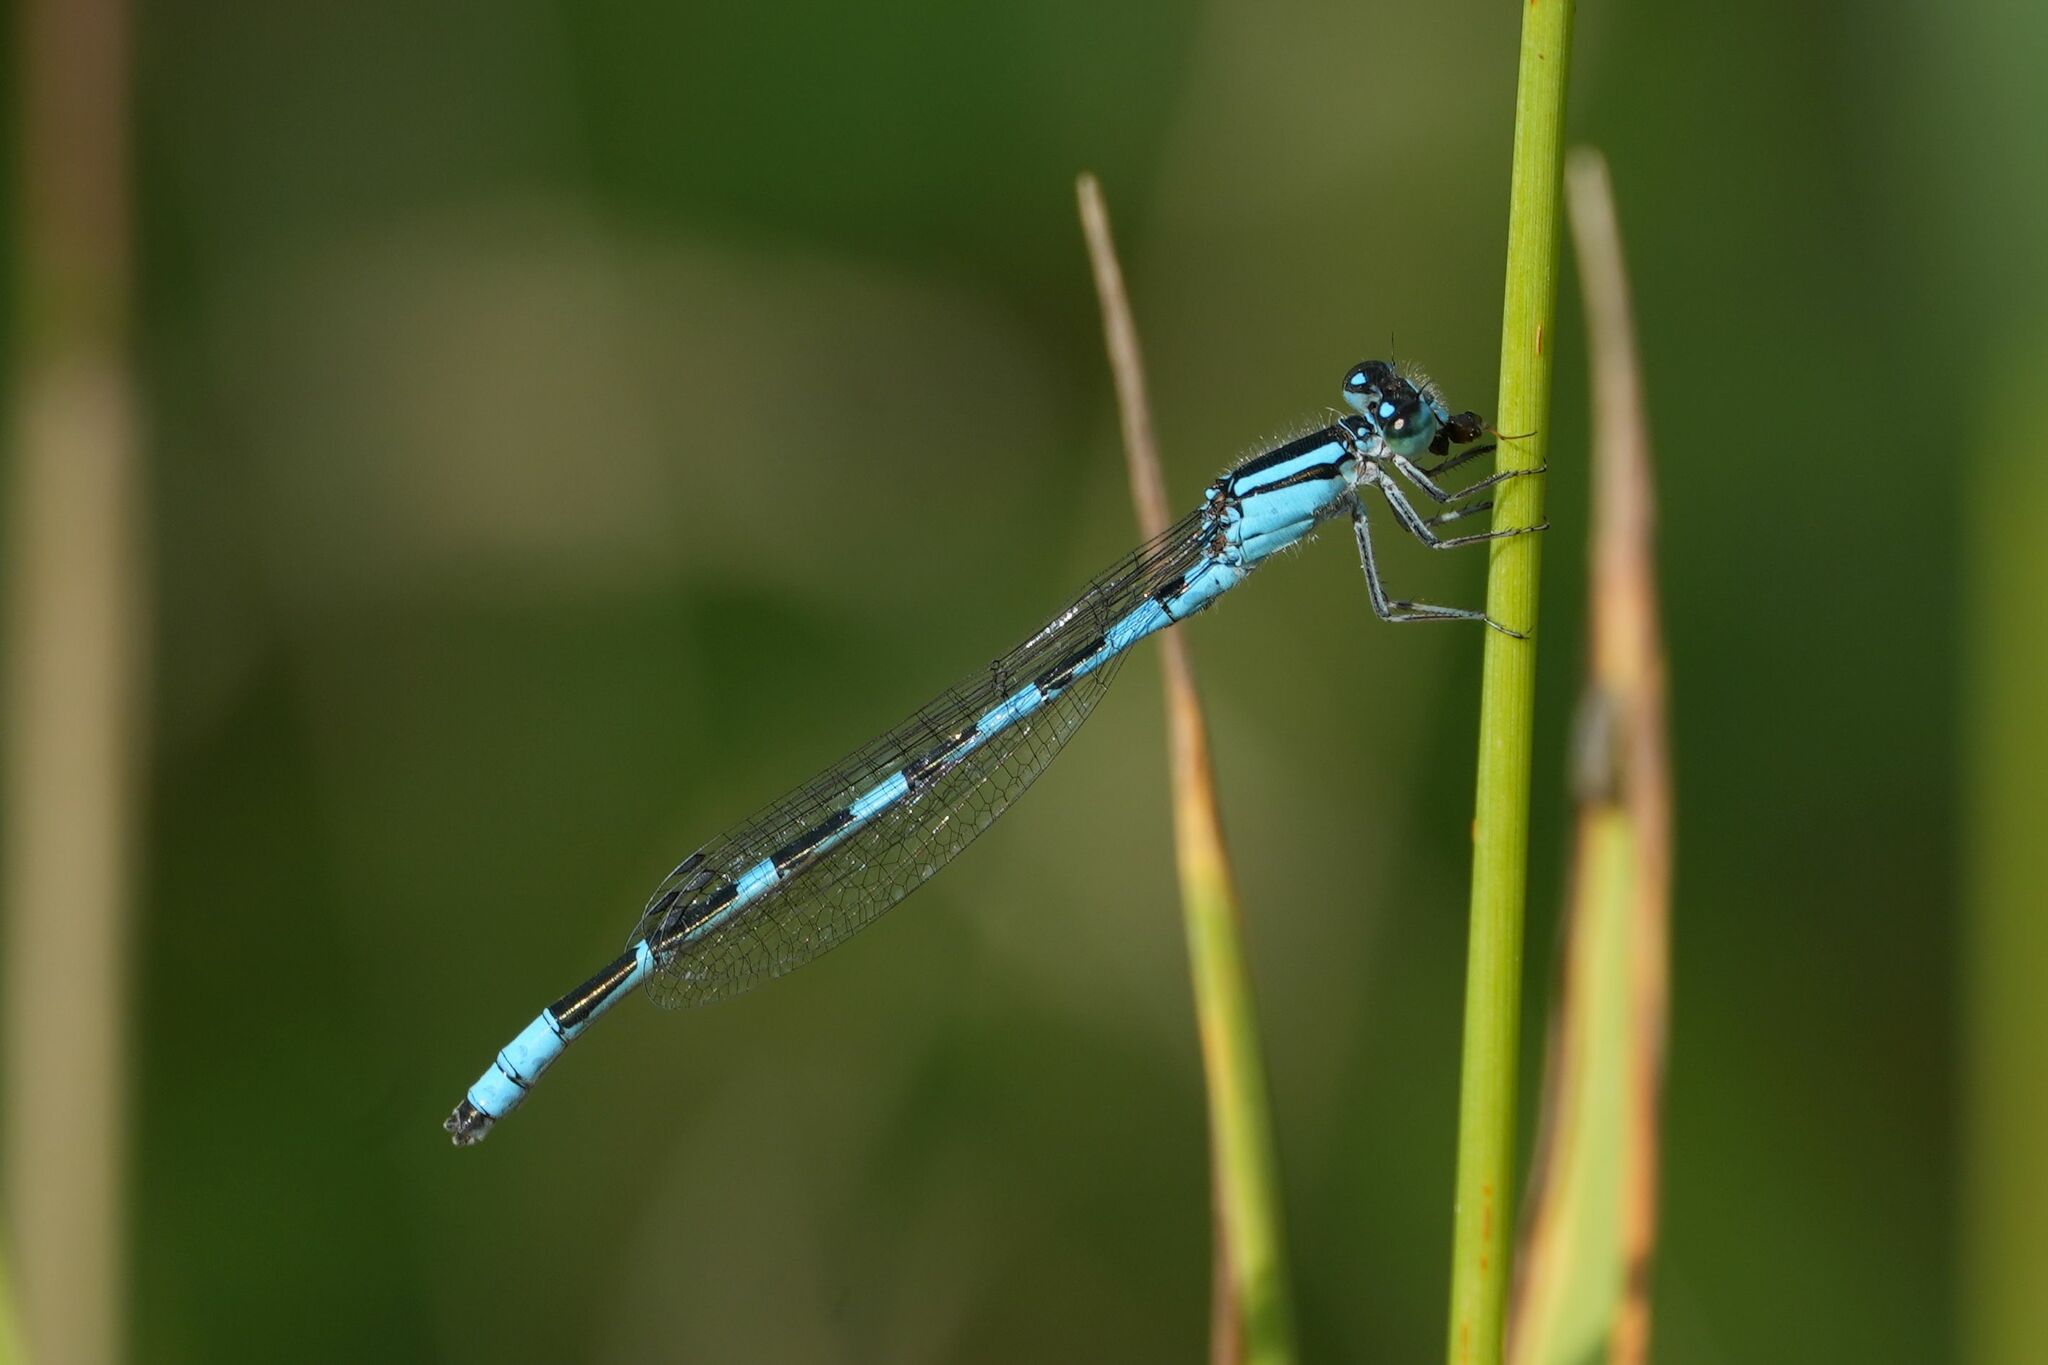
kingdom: Animalia
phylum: Arthropoda
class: Insecta
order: Odonata
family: Coenagrionidae
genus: Enallagma
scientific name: Enallagma carunculatum
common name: Tule bluet
